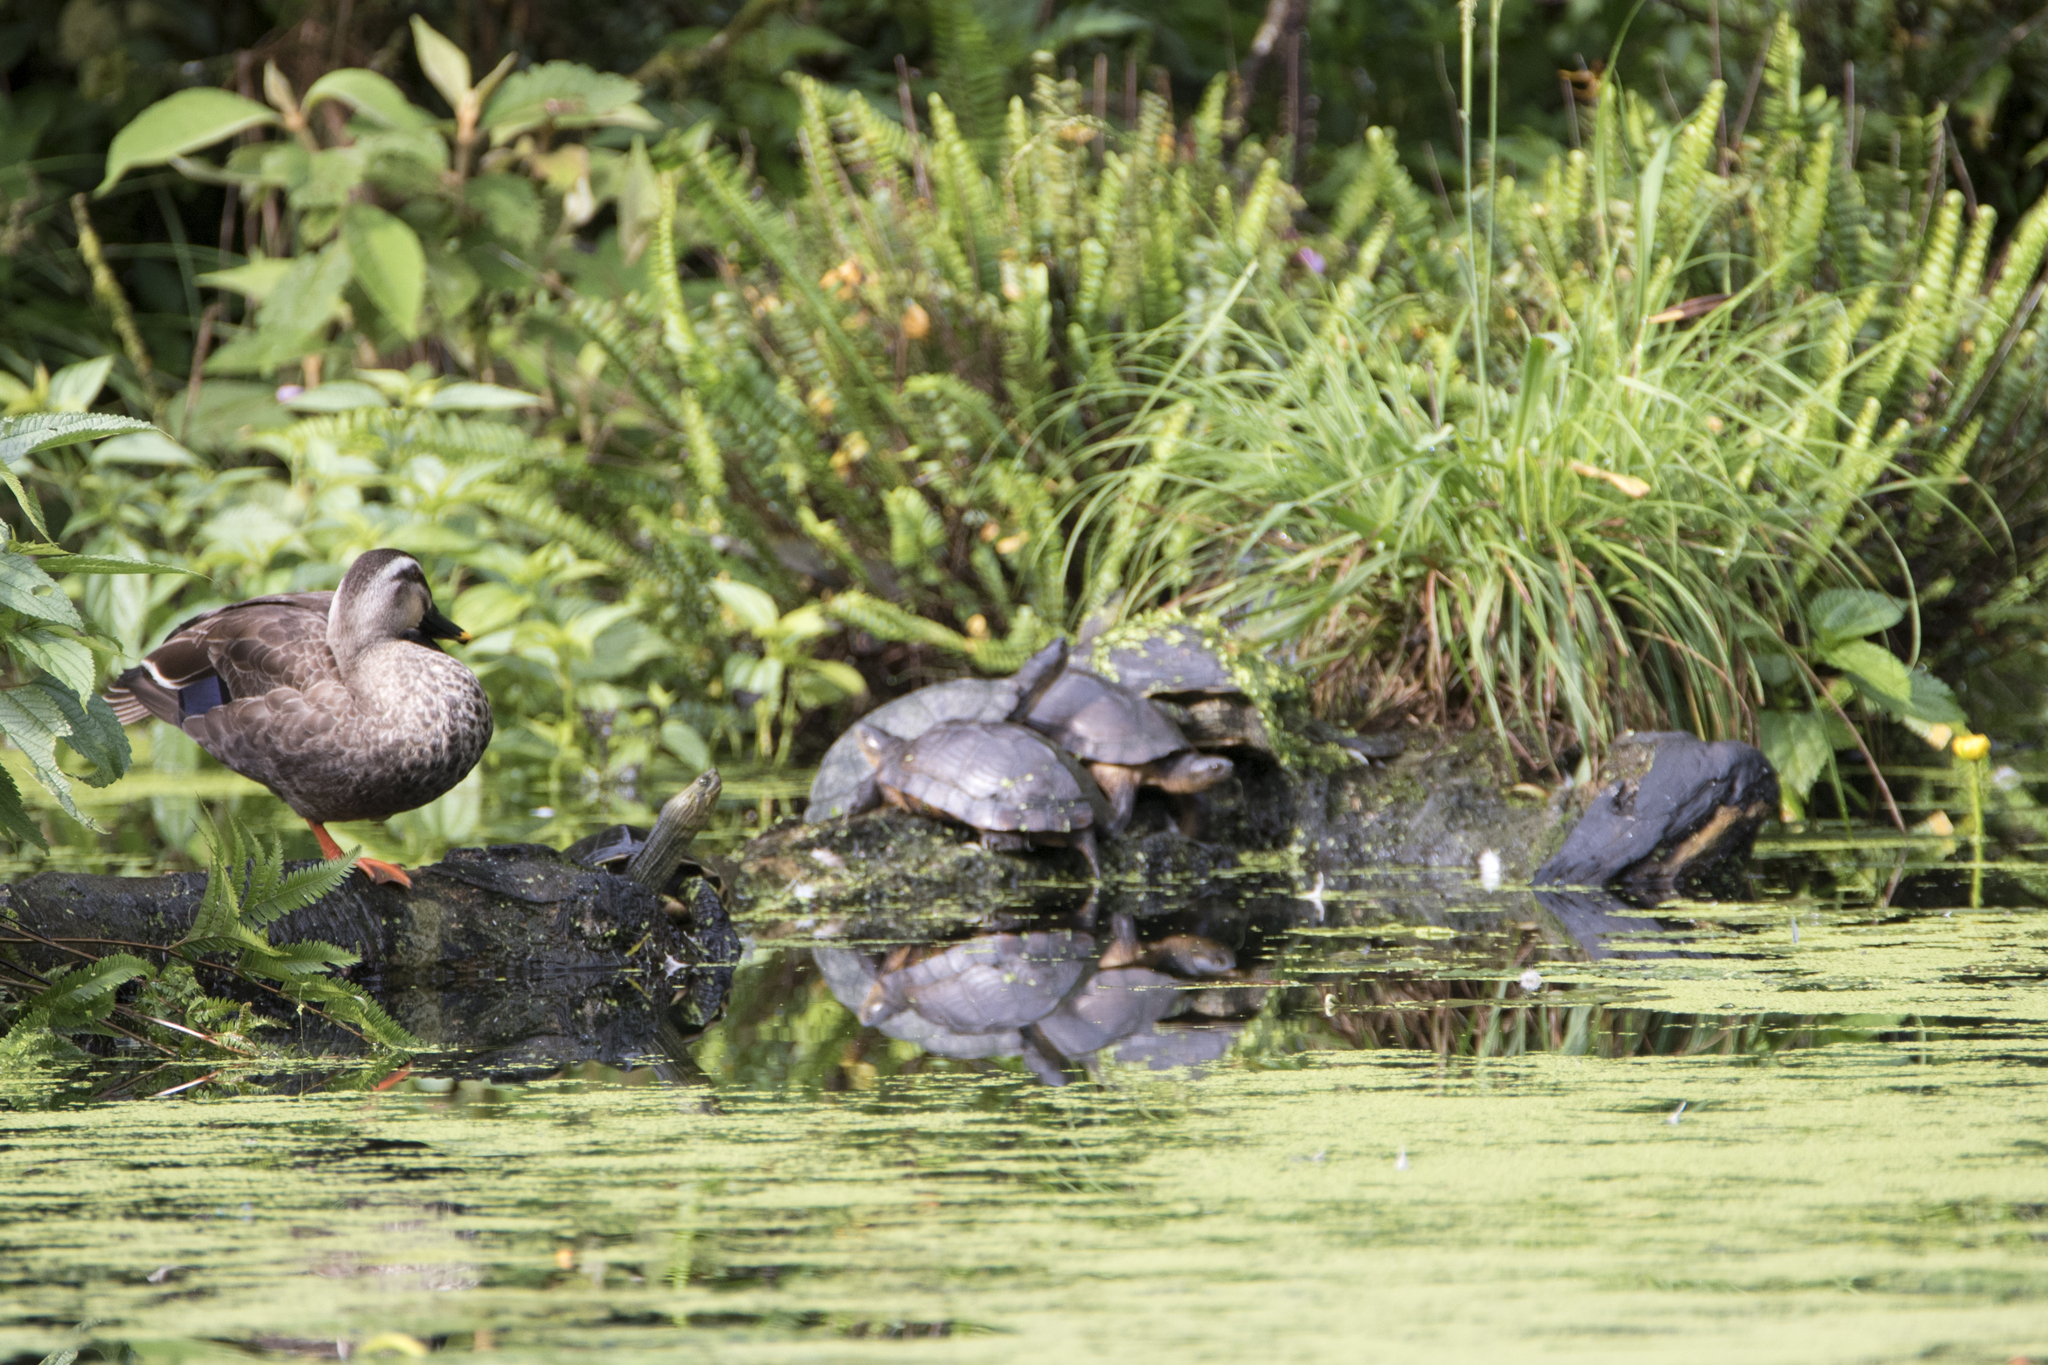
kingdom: Animalia
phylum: Chordata
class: Aves
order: Anseriformes
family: Anatidae
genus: Anas
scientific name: Anas zonorhyncha
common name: Eastern spot-billed duck
